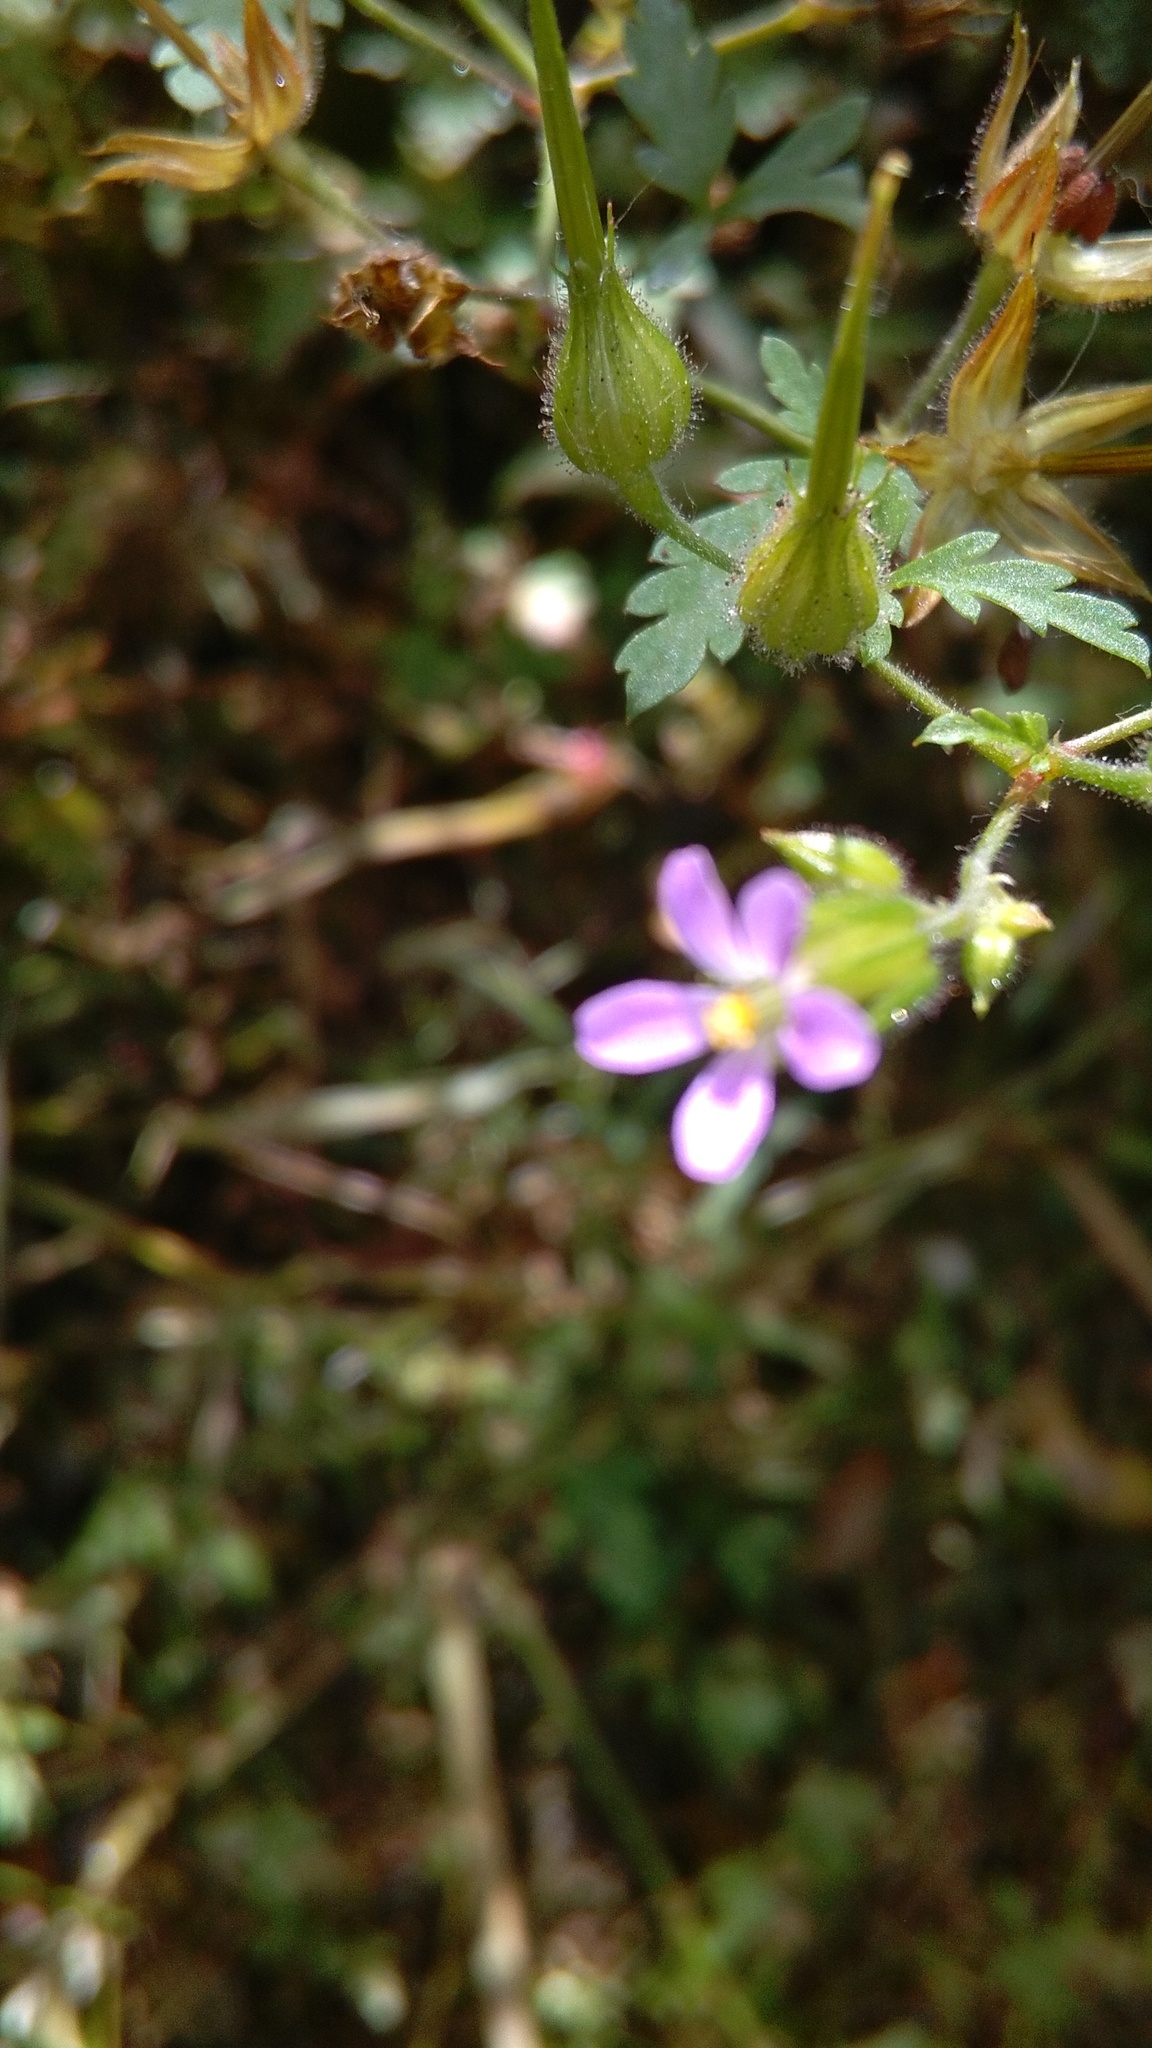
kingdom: Plantae
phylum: Tracheophyta
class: Magnoliopsida
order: Geraniales
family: Geraniaceae
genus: Geranium
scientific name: Geranium purpureum
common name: Little-robin
